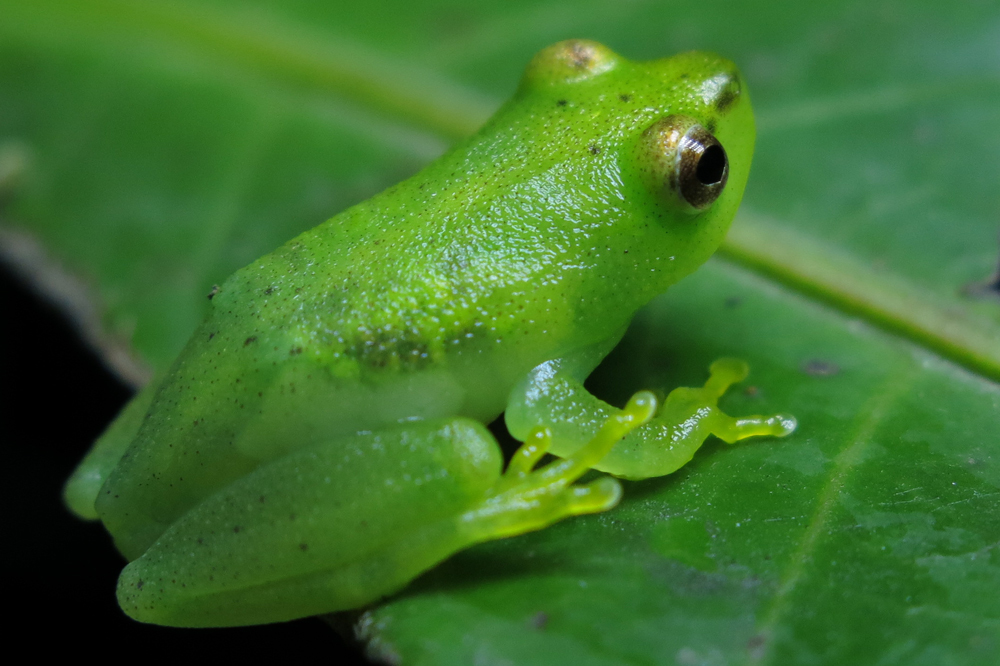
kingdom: Animalia
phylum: Chordata
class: Amphibia
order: Anura
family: Hyperoliidae
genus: Hyperolius
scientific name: Hyperolius pusillus
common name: Water lily reed frog
